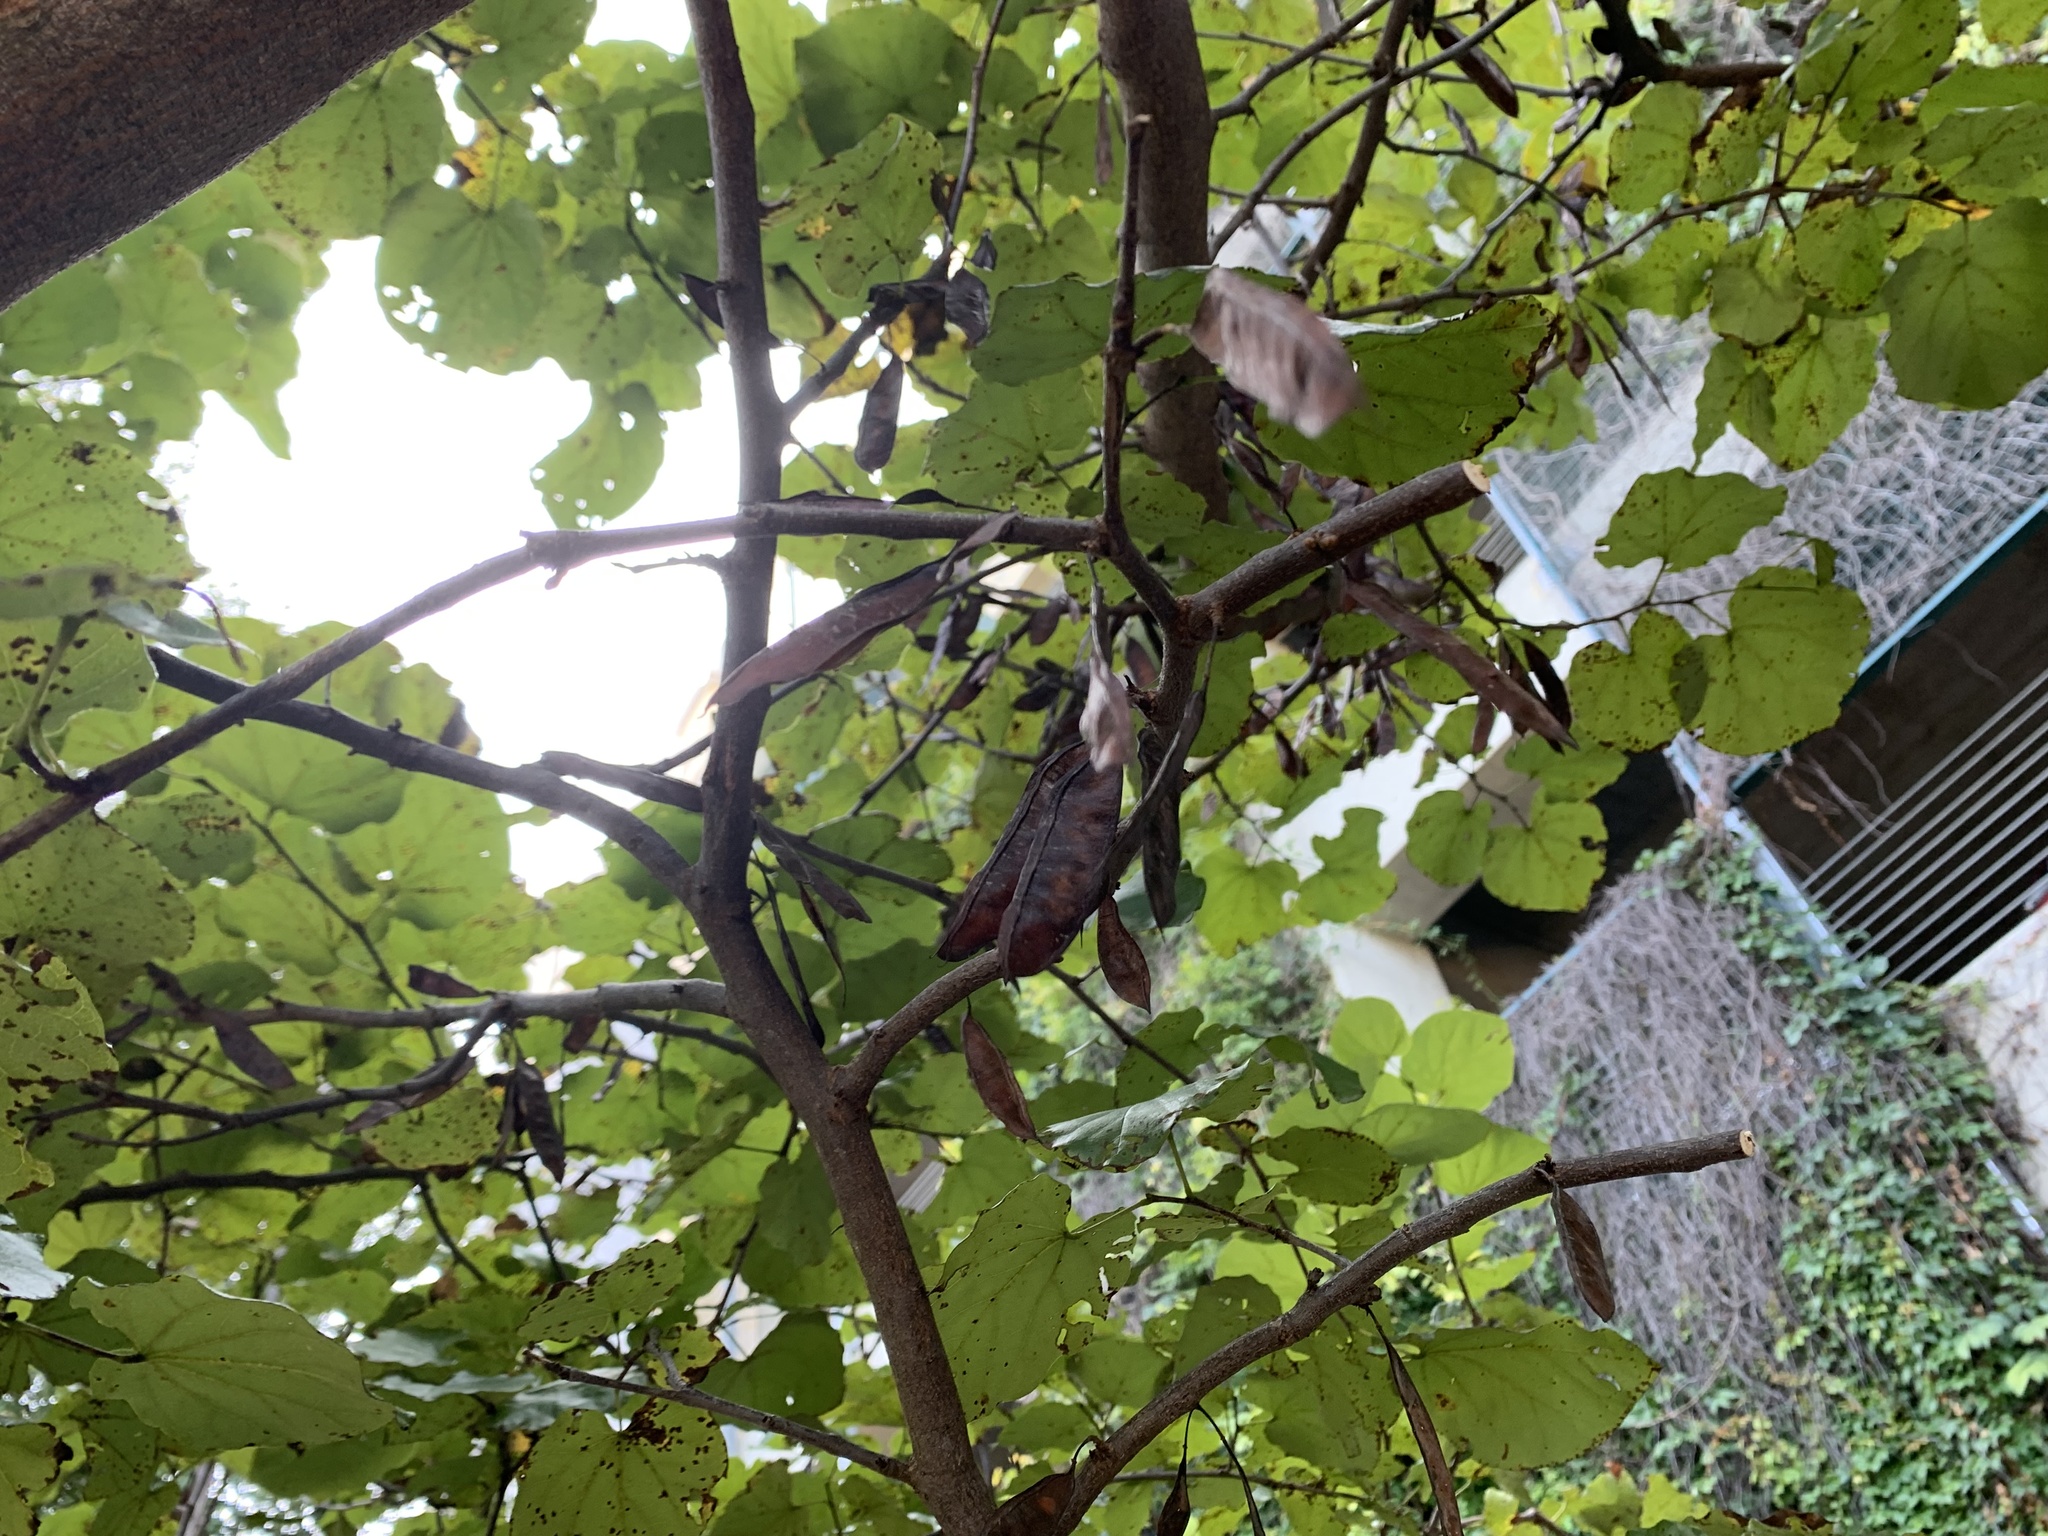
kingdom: Plantae
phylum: Tracheophyta
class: Magnoliopsida
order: Fabales
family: Fabaceae
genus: Cercis
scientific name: Cercis canadensis
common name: Eastern redbud
